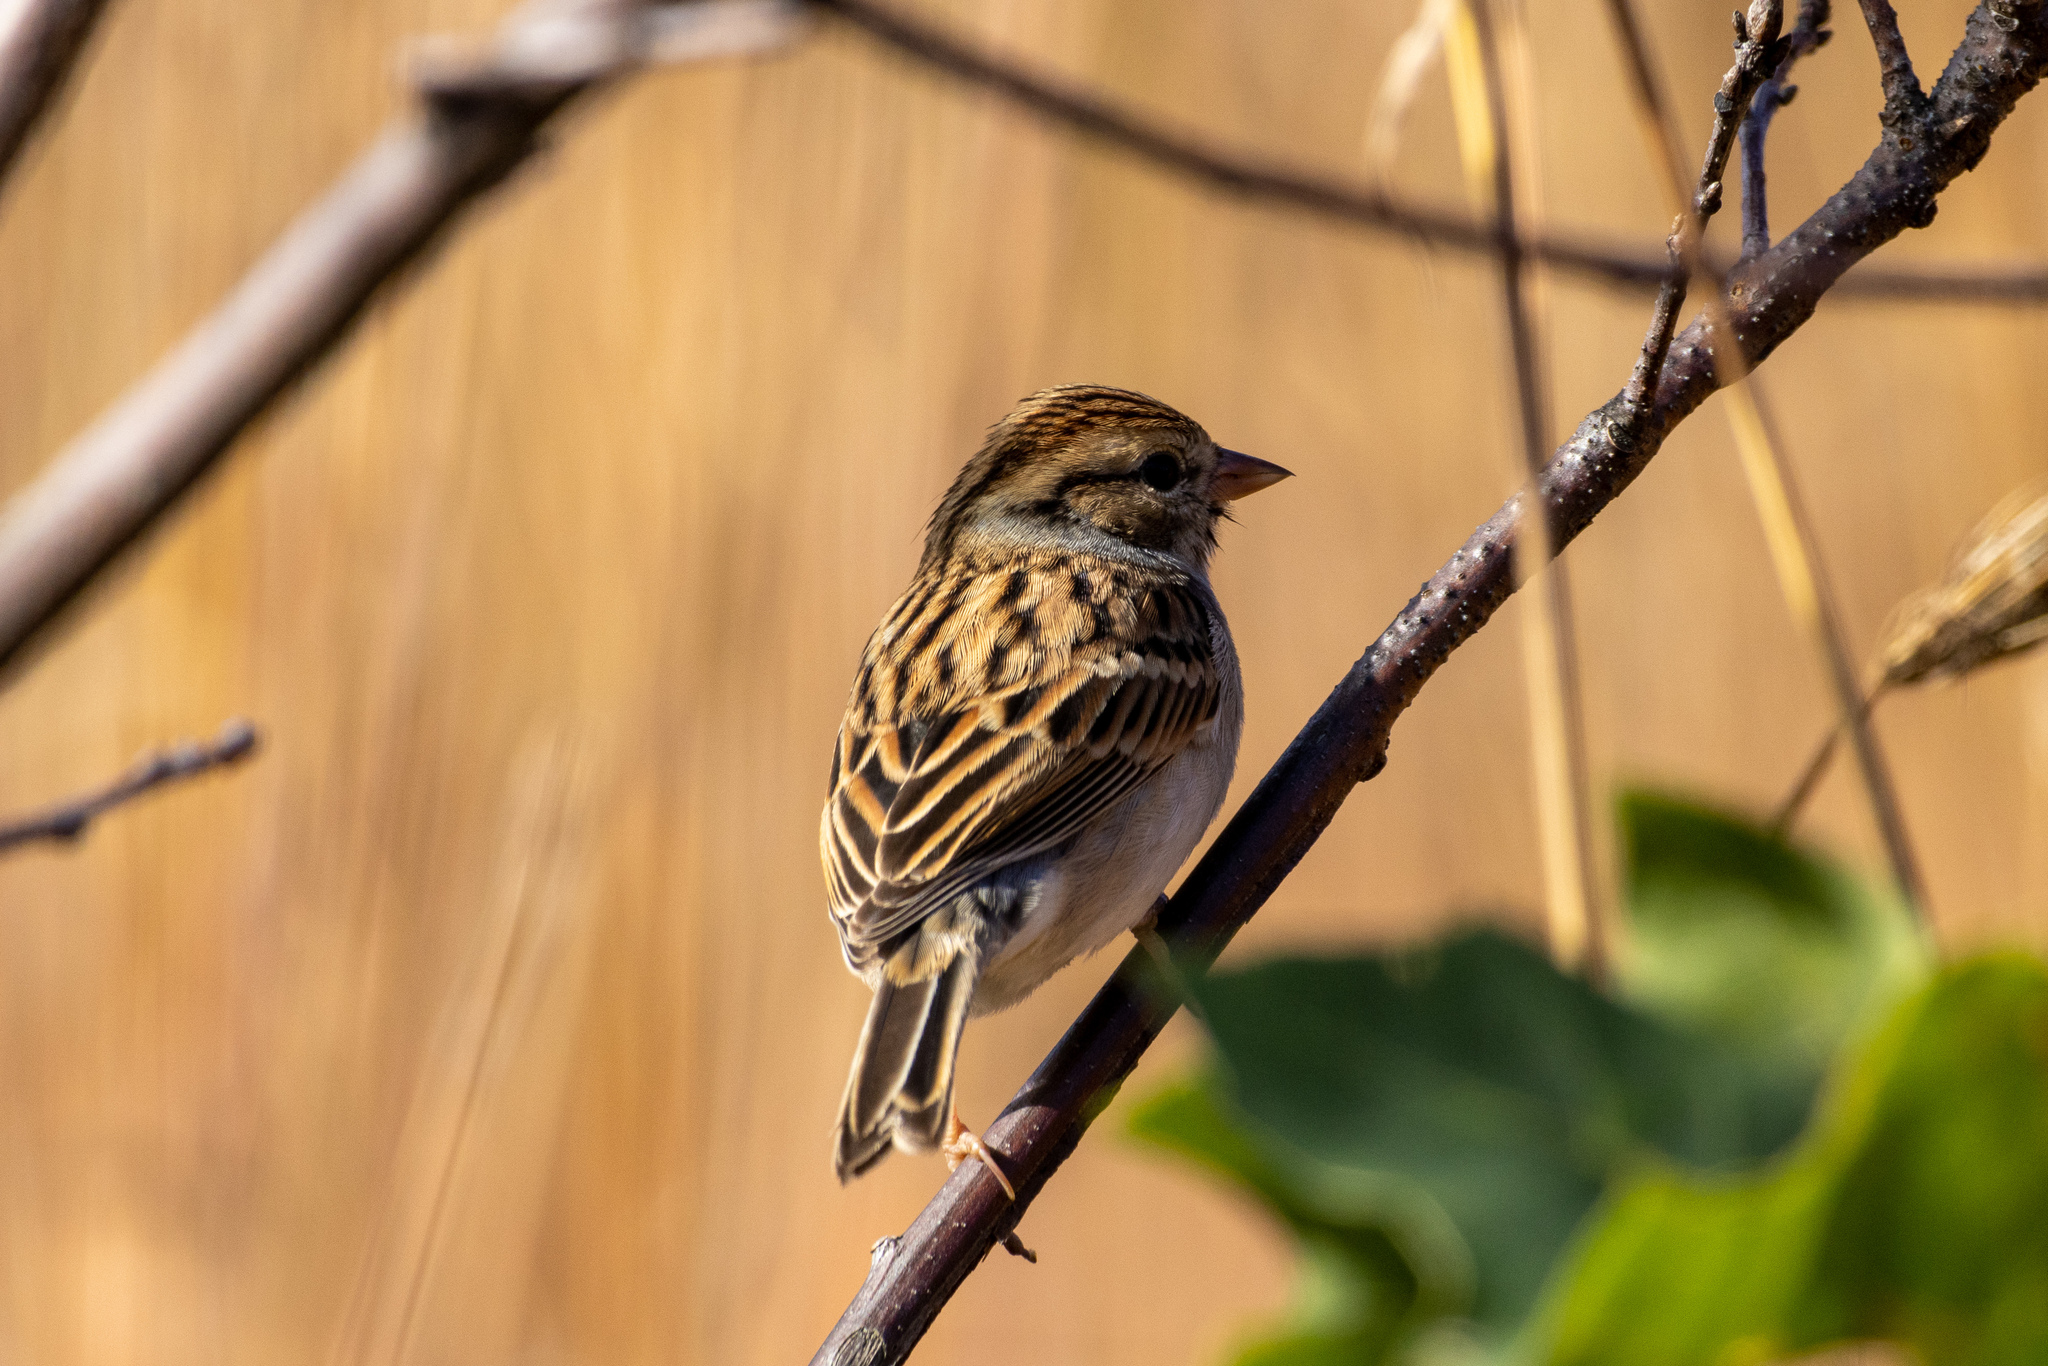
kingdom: Animalia
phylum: Chordata
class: Aves
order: Passeriformes
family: Passerellidae
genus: Spizella
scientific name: Spizella passerina
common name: Chipping sparrow
